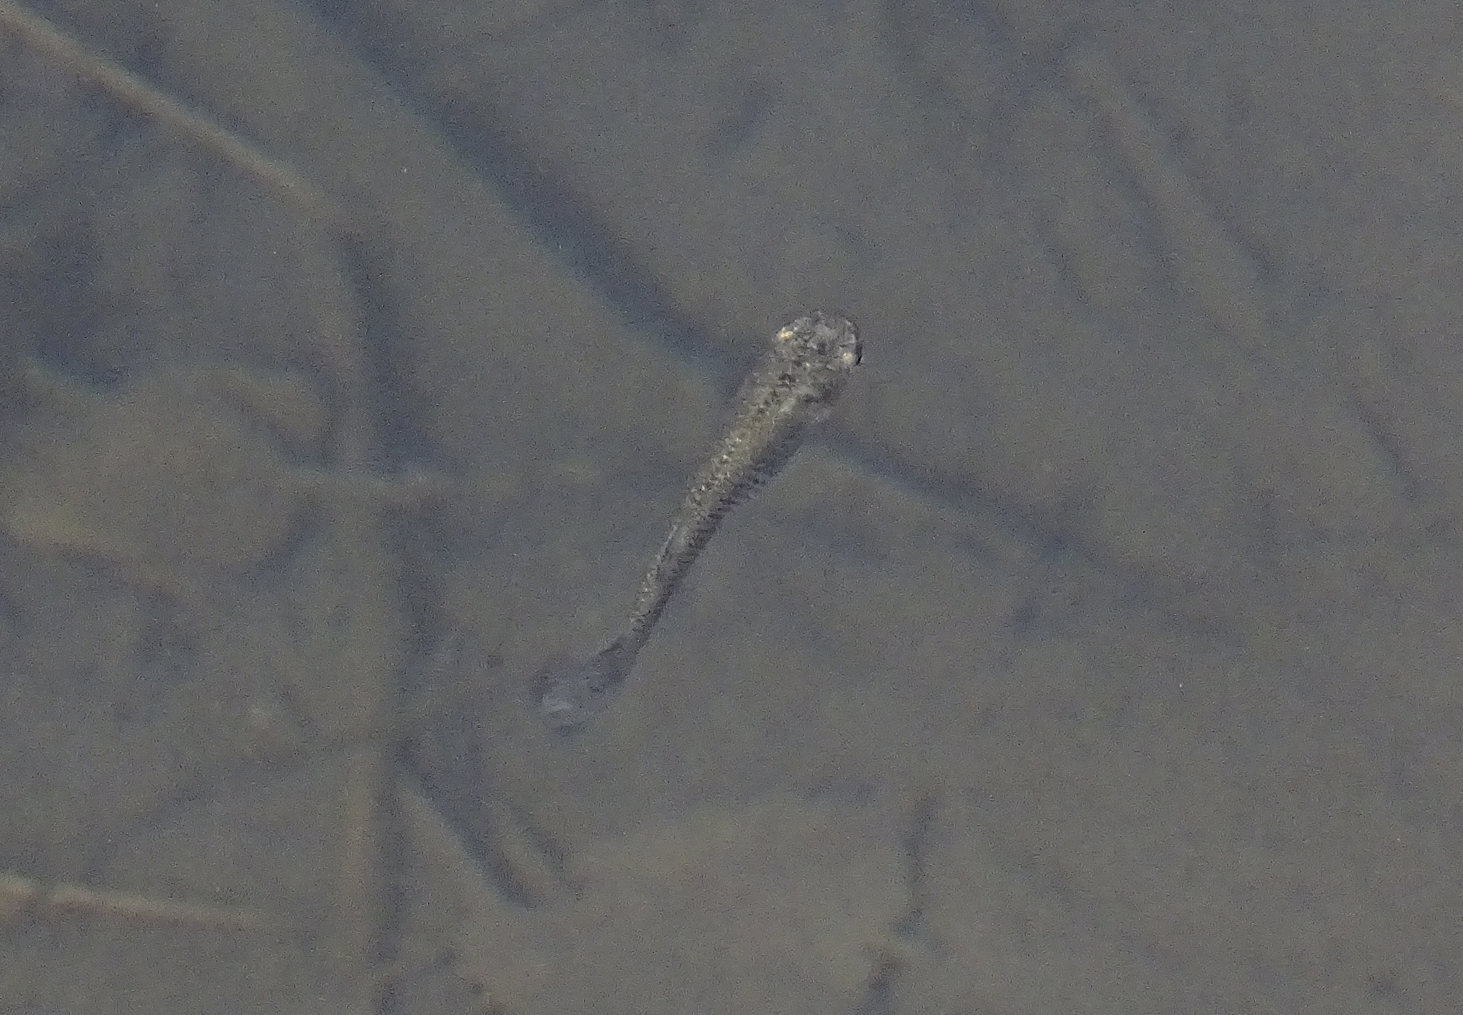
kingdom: Animalia
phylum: Chordata
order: Cyprinodontiformes
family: Poeciliidae
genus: Gambusia
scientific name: Gambusia affinis
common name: Mosquitofish
